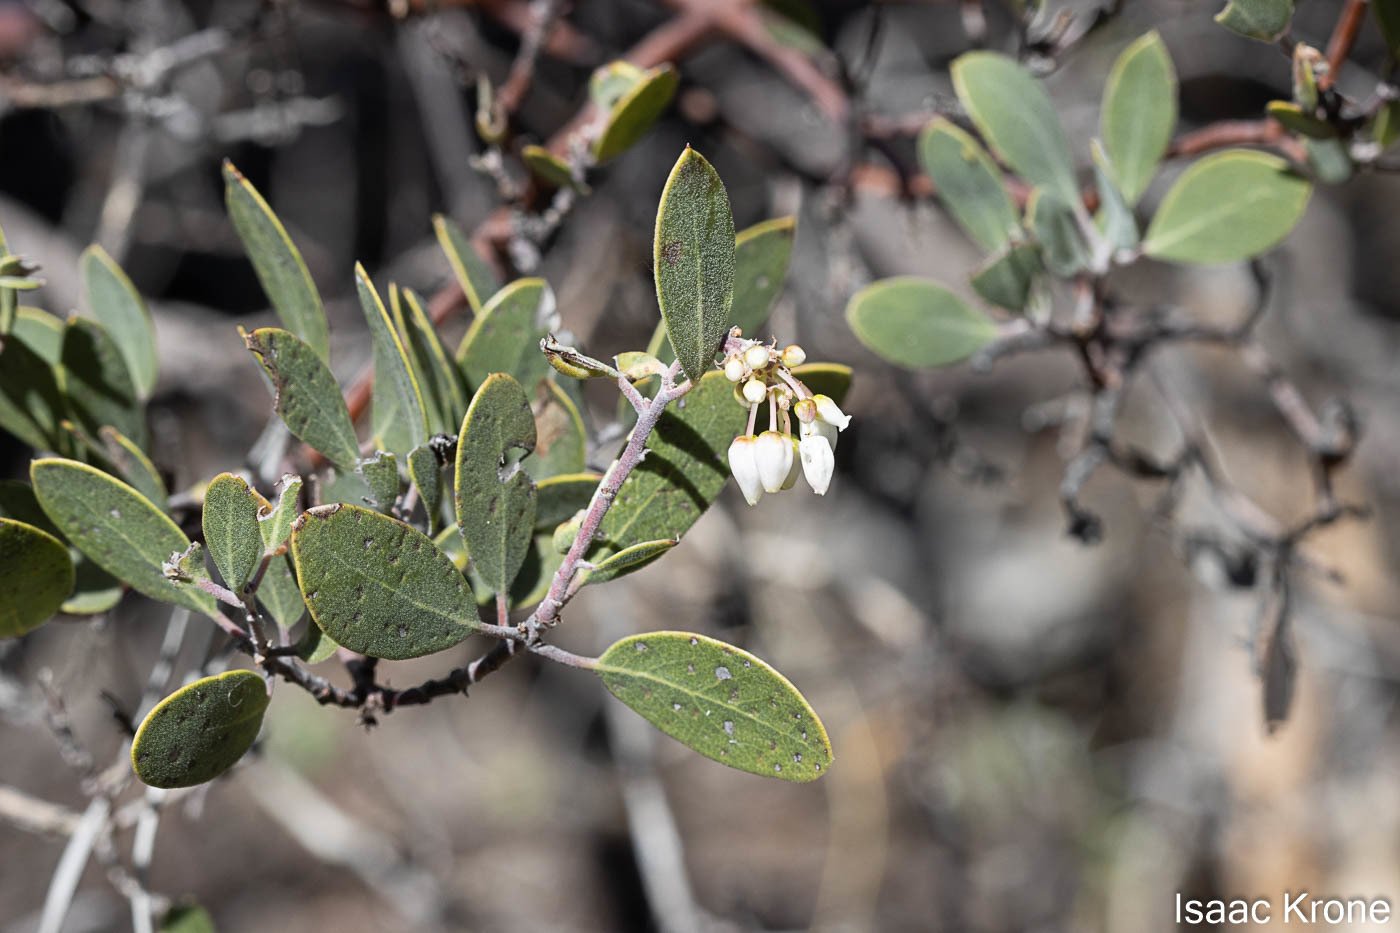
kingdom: Plantae
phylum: Tracheophyta
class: Magnoliopsida
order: Ericales
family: Ericaceae
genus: Arctostaphylos
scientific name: Arctostaphylos pungens
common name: Mexican manzanita
